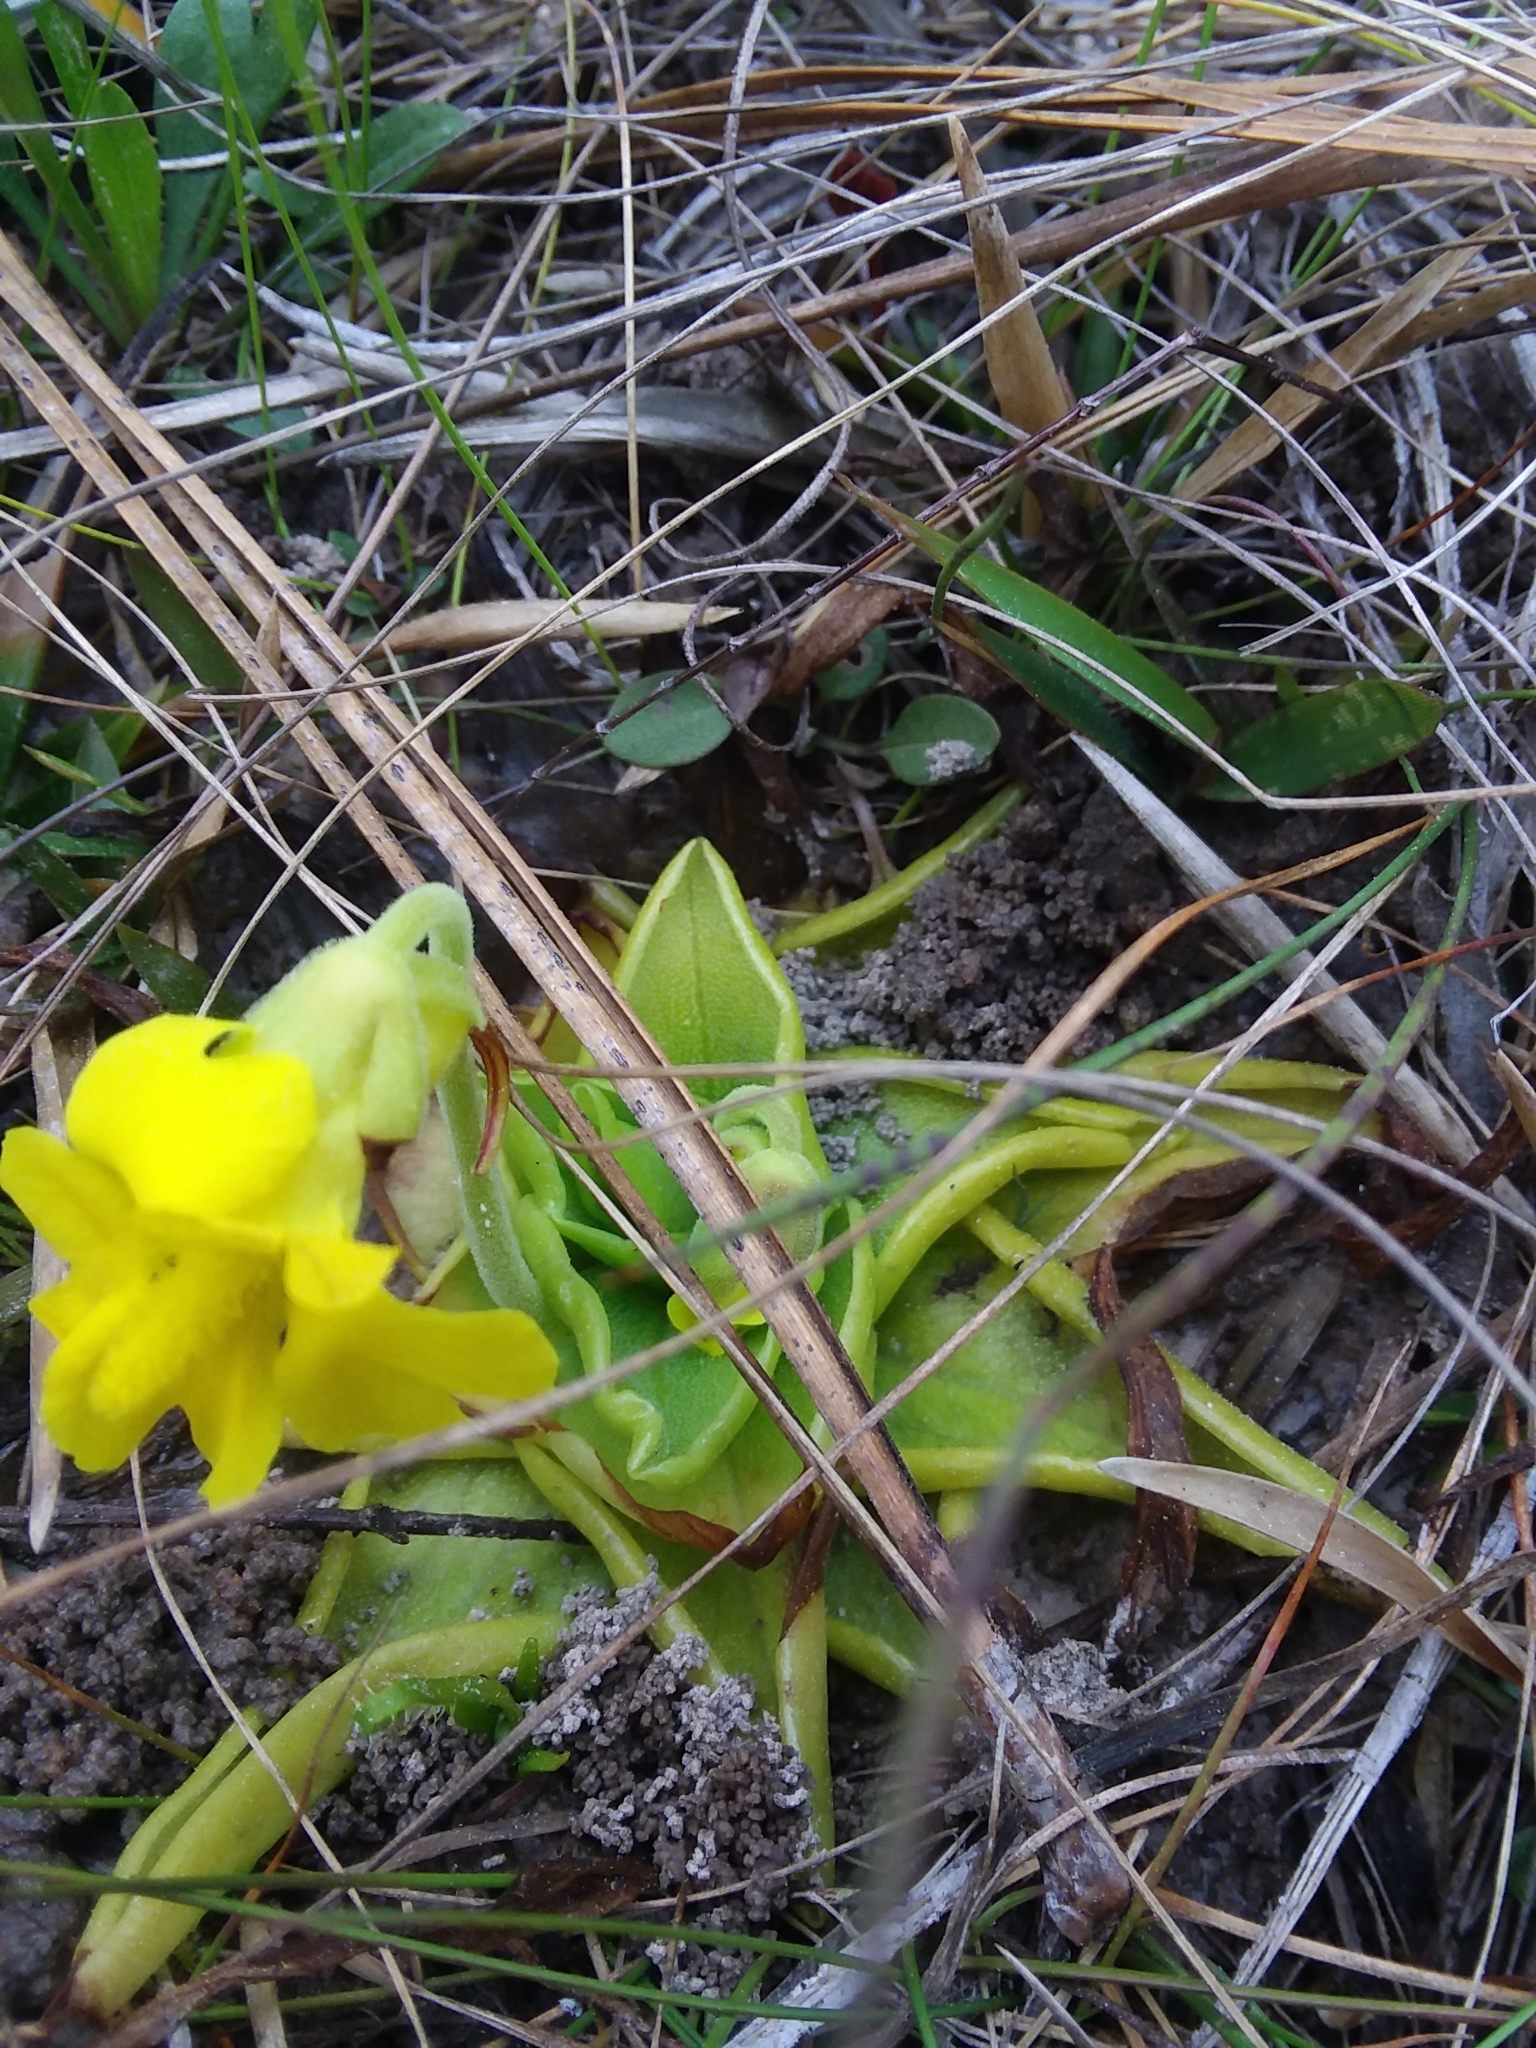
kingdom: Plantae
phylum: Tracheophyta
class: Magnoliopsida
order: Lamiales
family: Lentibulariaceae
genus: Pinguicula
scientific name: Pinguicula lutea
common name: Yellow butterwort
